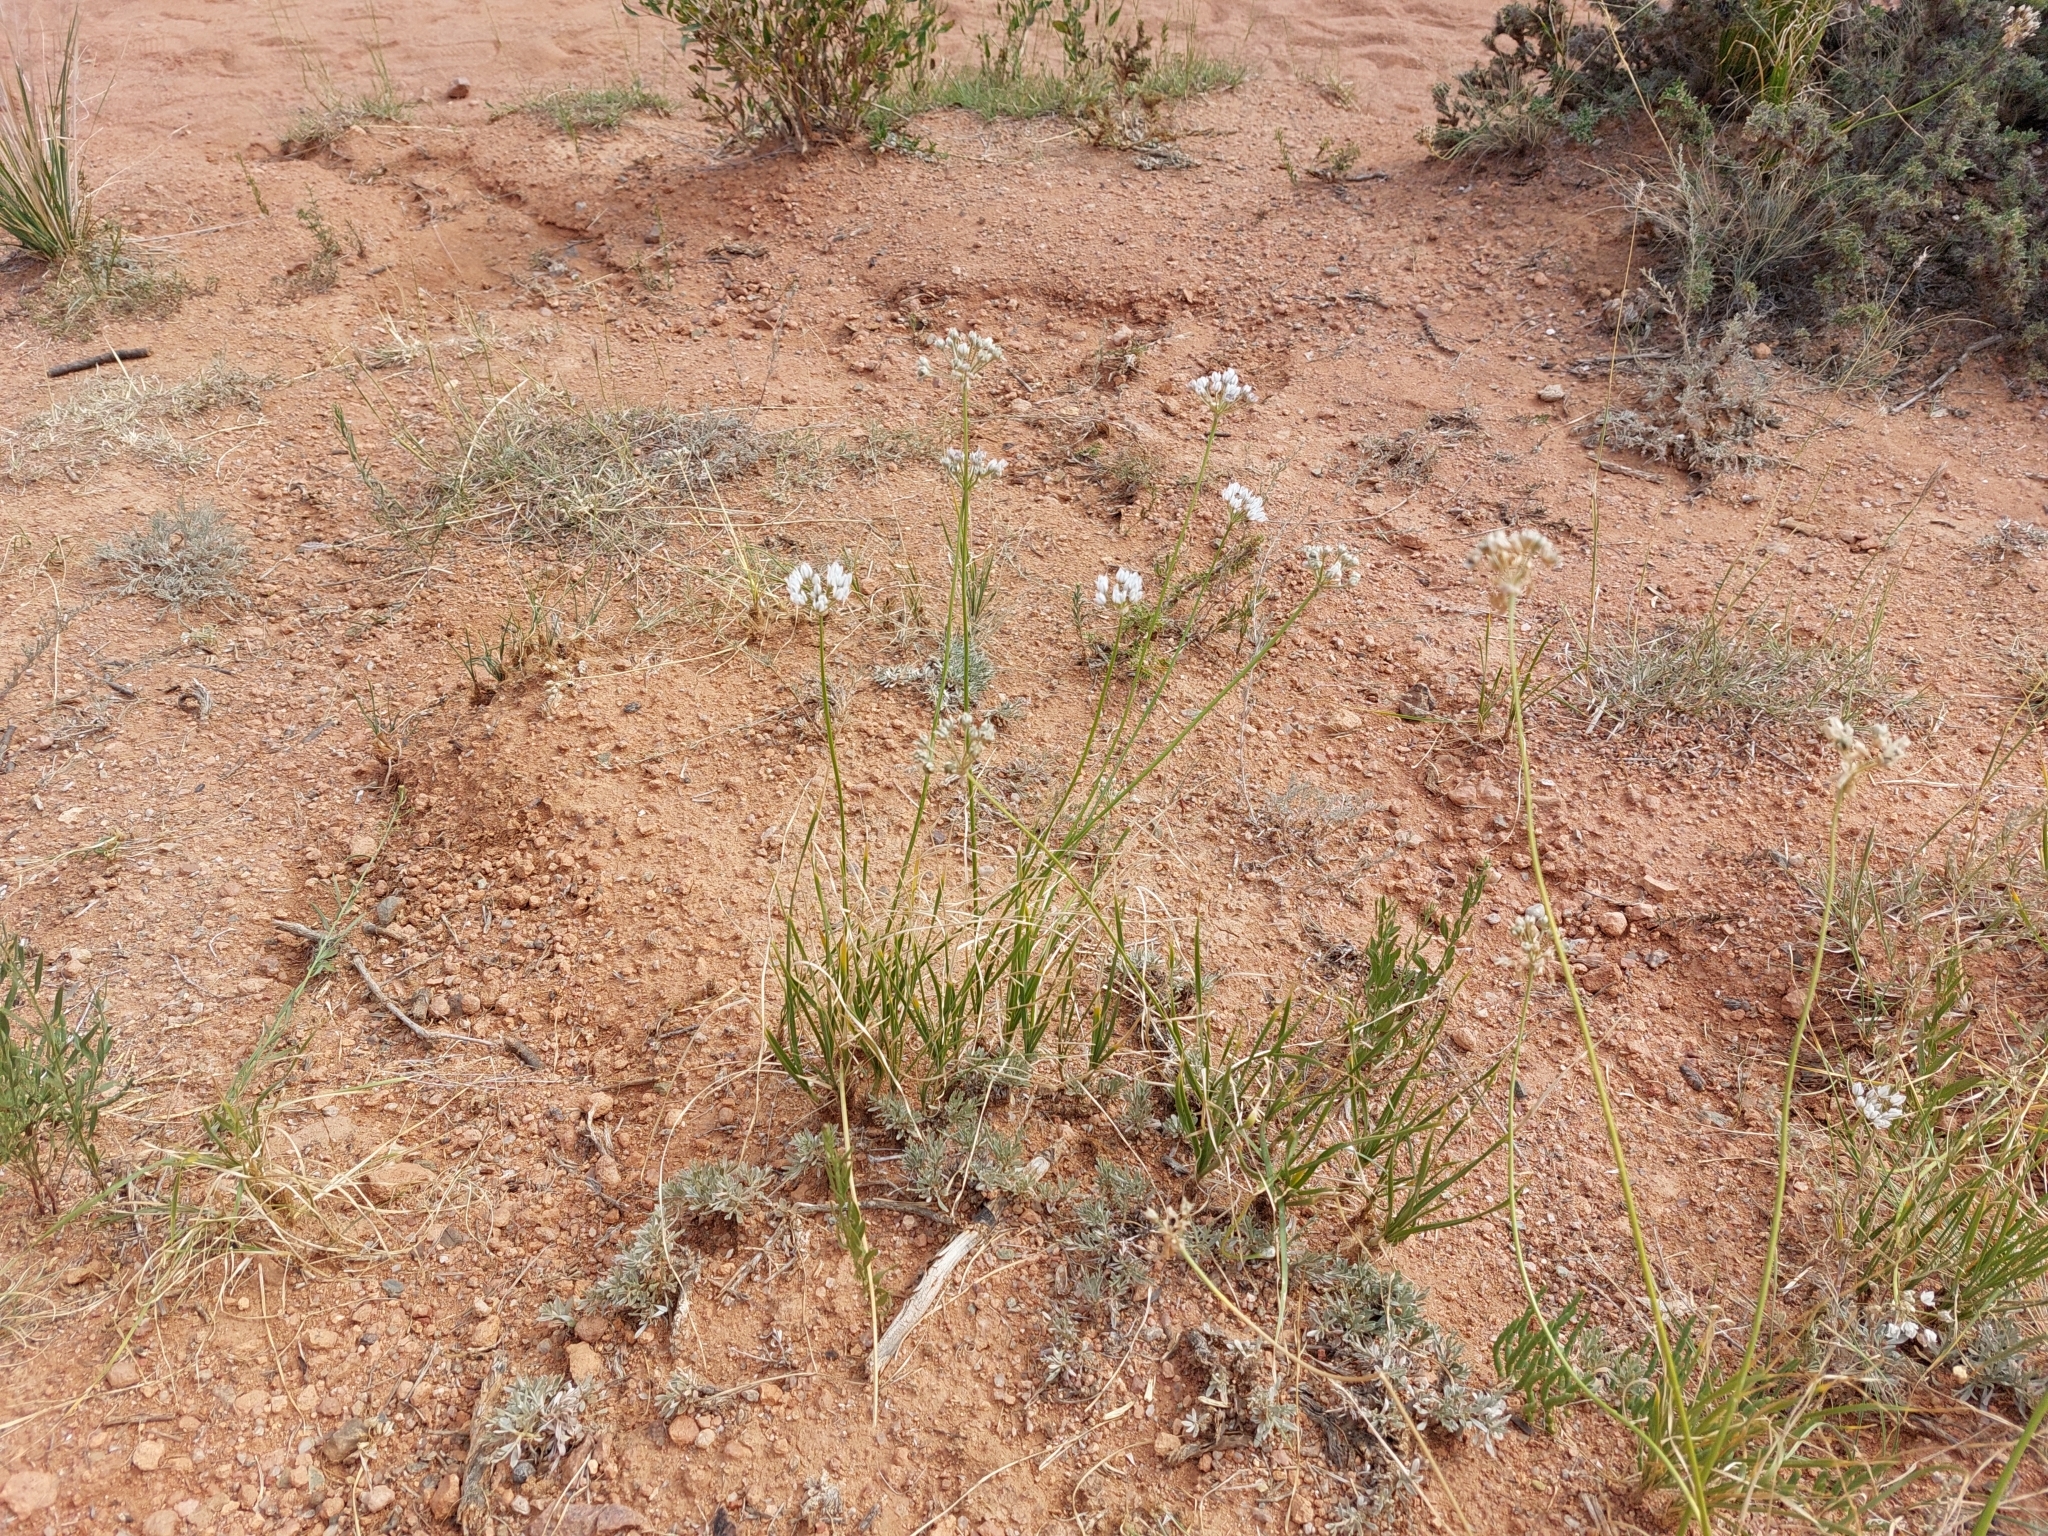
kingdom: Plantae
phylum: Tracheophyta
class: Liliopsida
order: Asparagales
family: Amaryllidaceae
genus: Allium
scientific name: Allium oreoprasum
